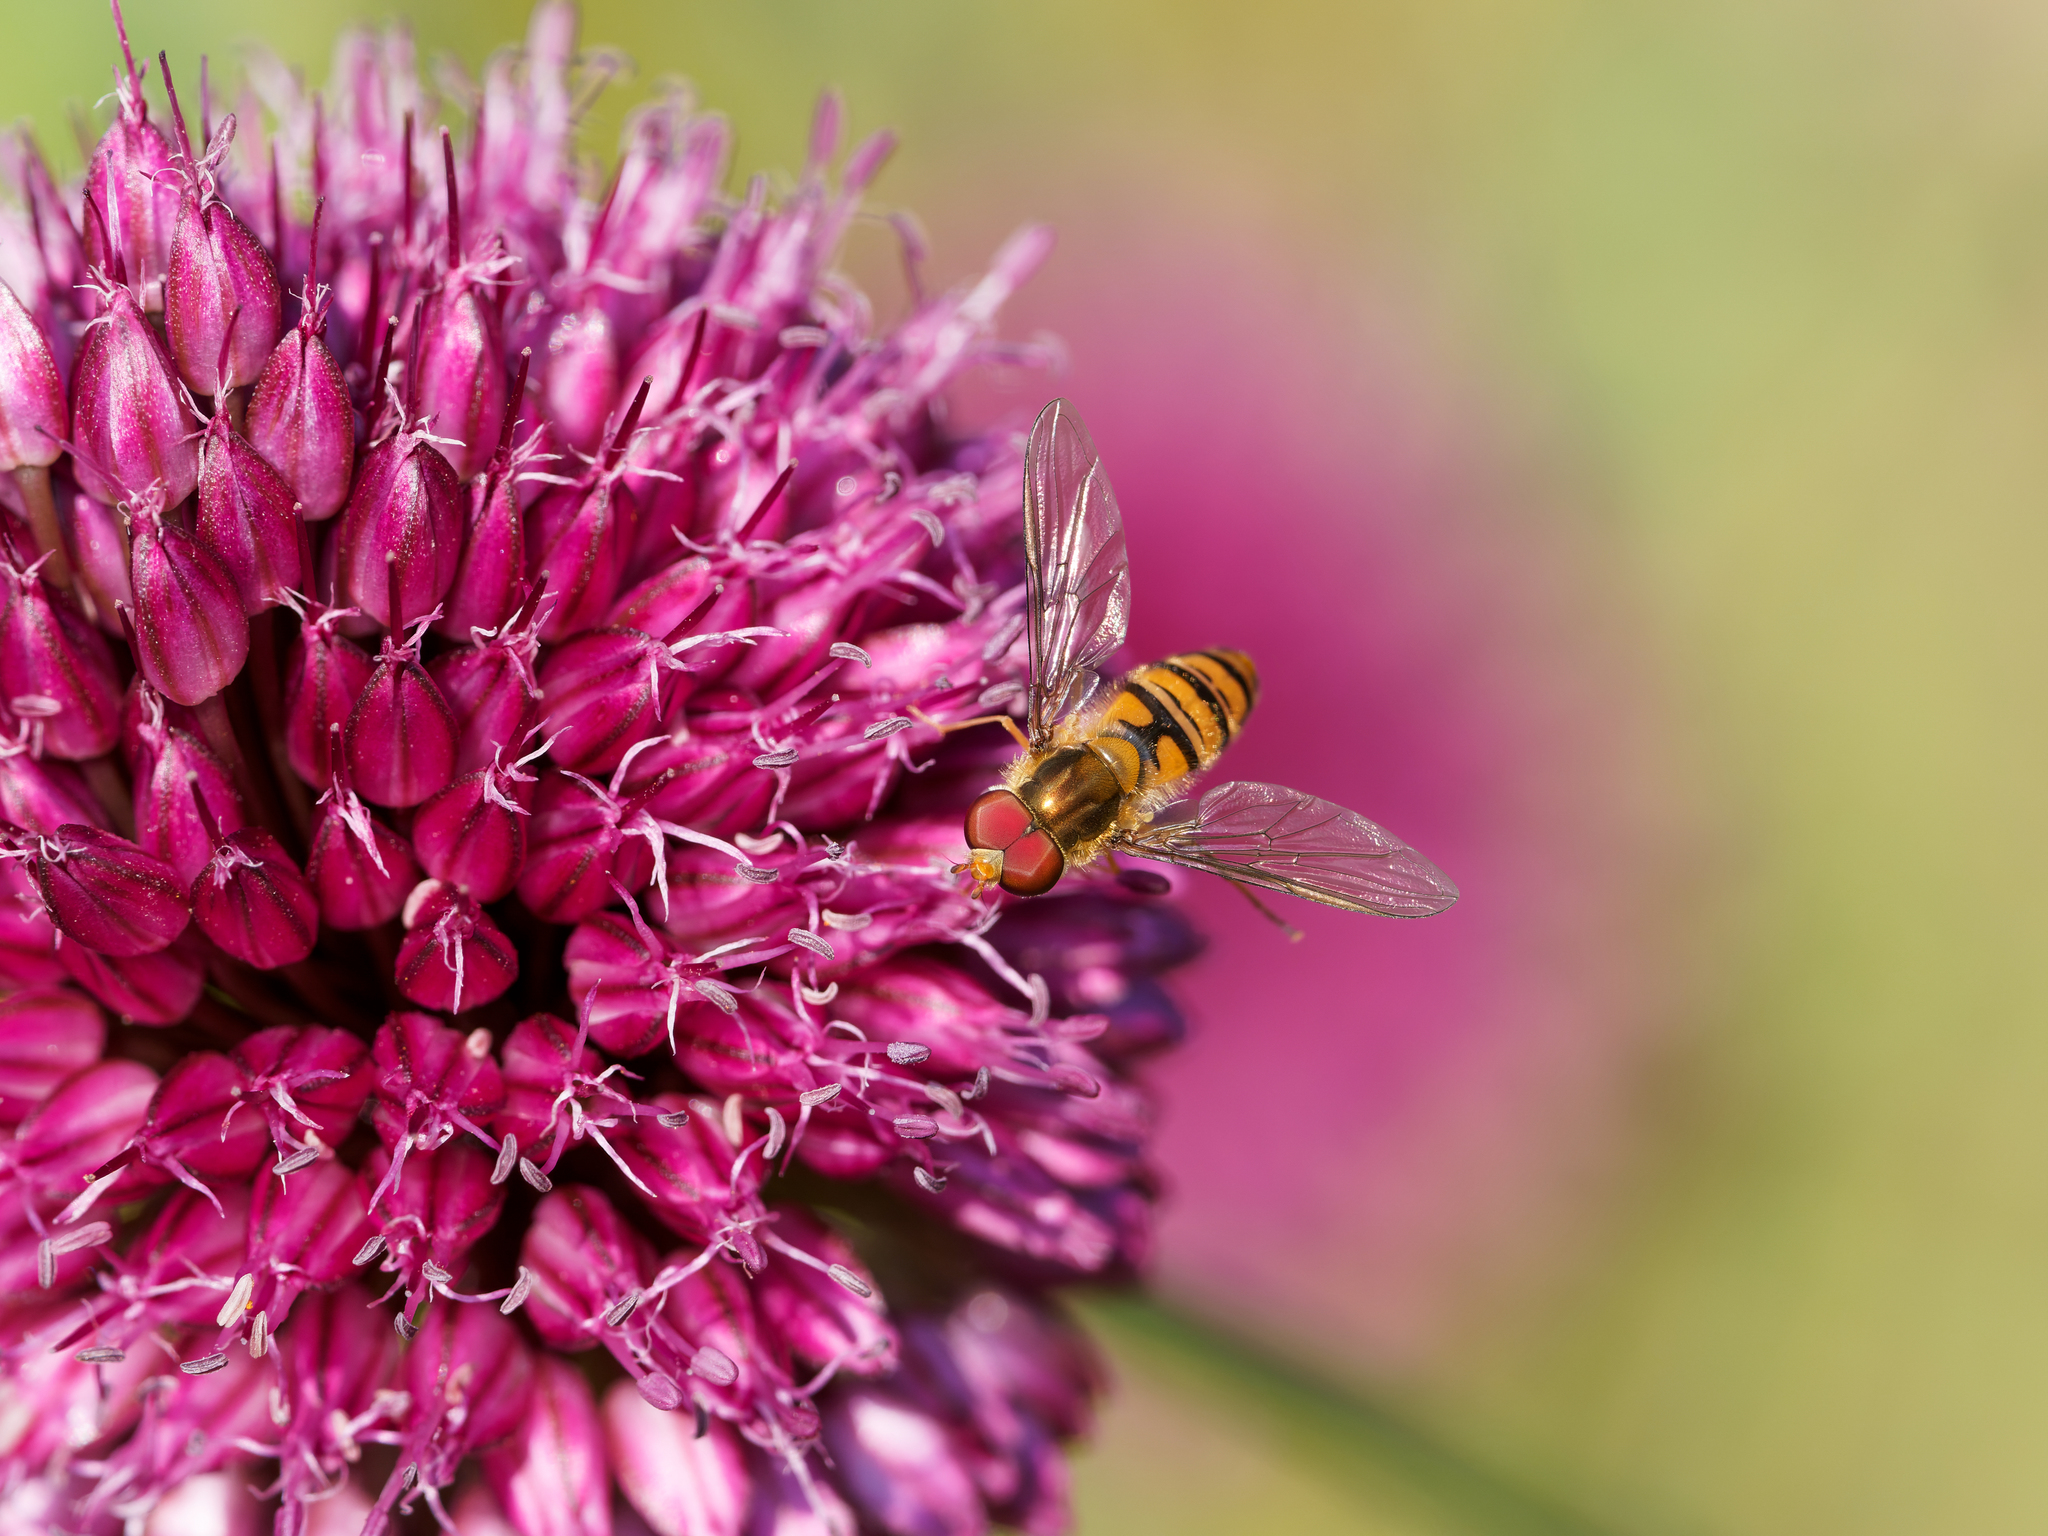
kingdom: Animalia
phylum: Arthropoda
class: Insecta
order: Diptera
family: Syrphidae
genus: Episyrphus
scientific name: Episyrphus balteatus
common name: Marmalade hoverfly
